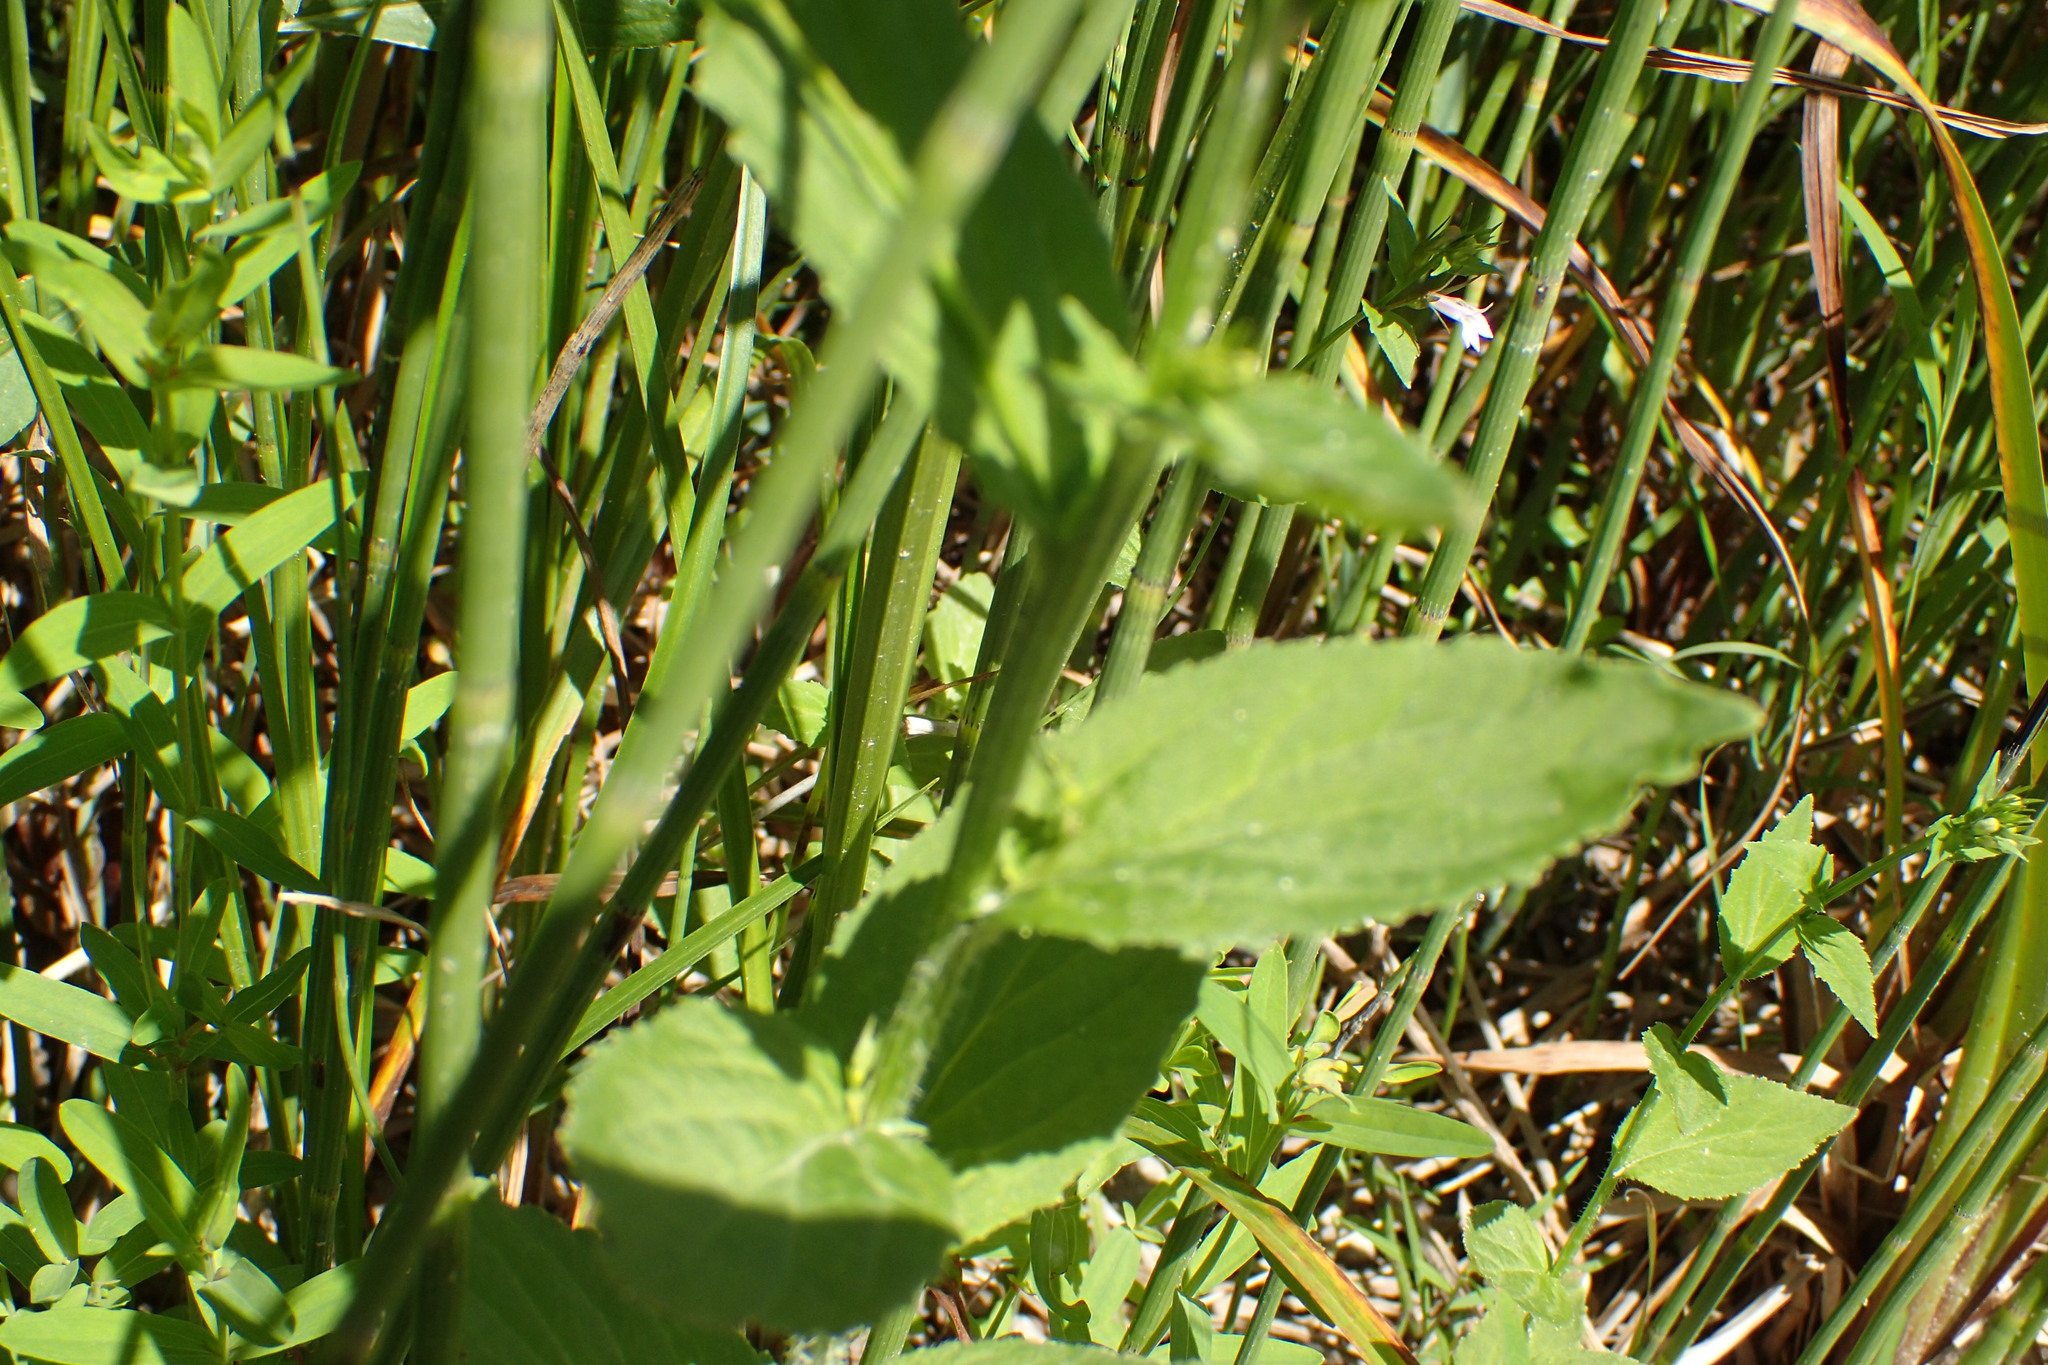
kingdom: Plantae
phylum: Tracheophyta
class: Magnoliopsida
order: Asterales
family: Campanulaceae
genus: Lobelia
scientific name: Lobelia inflata
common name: Indian tobacco
